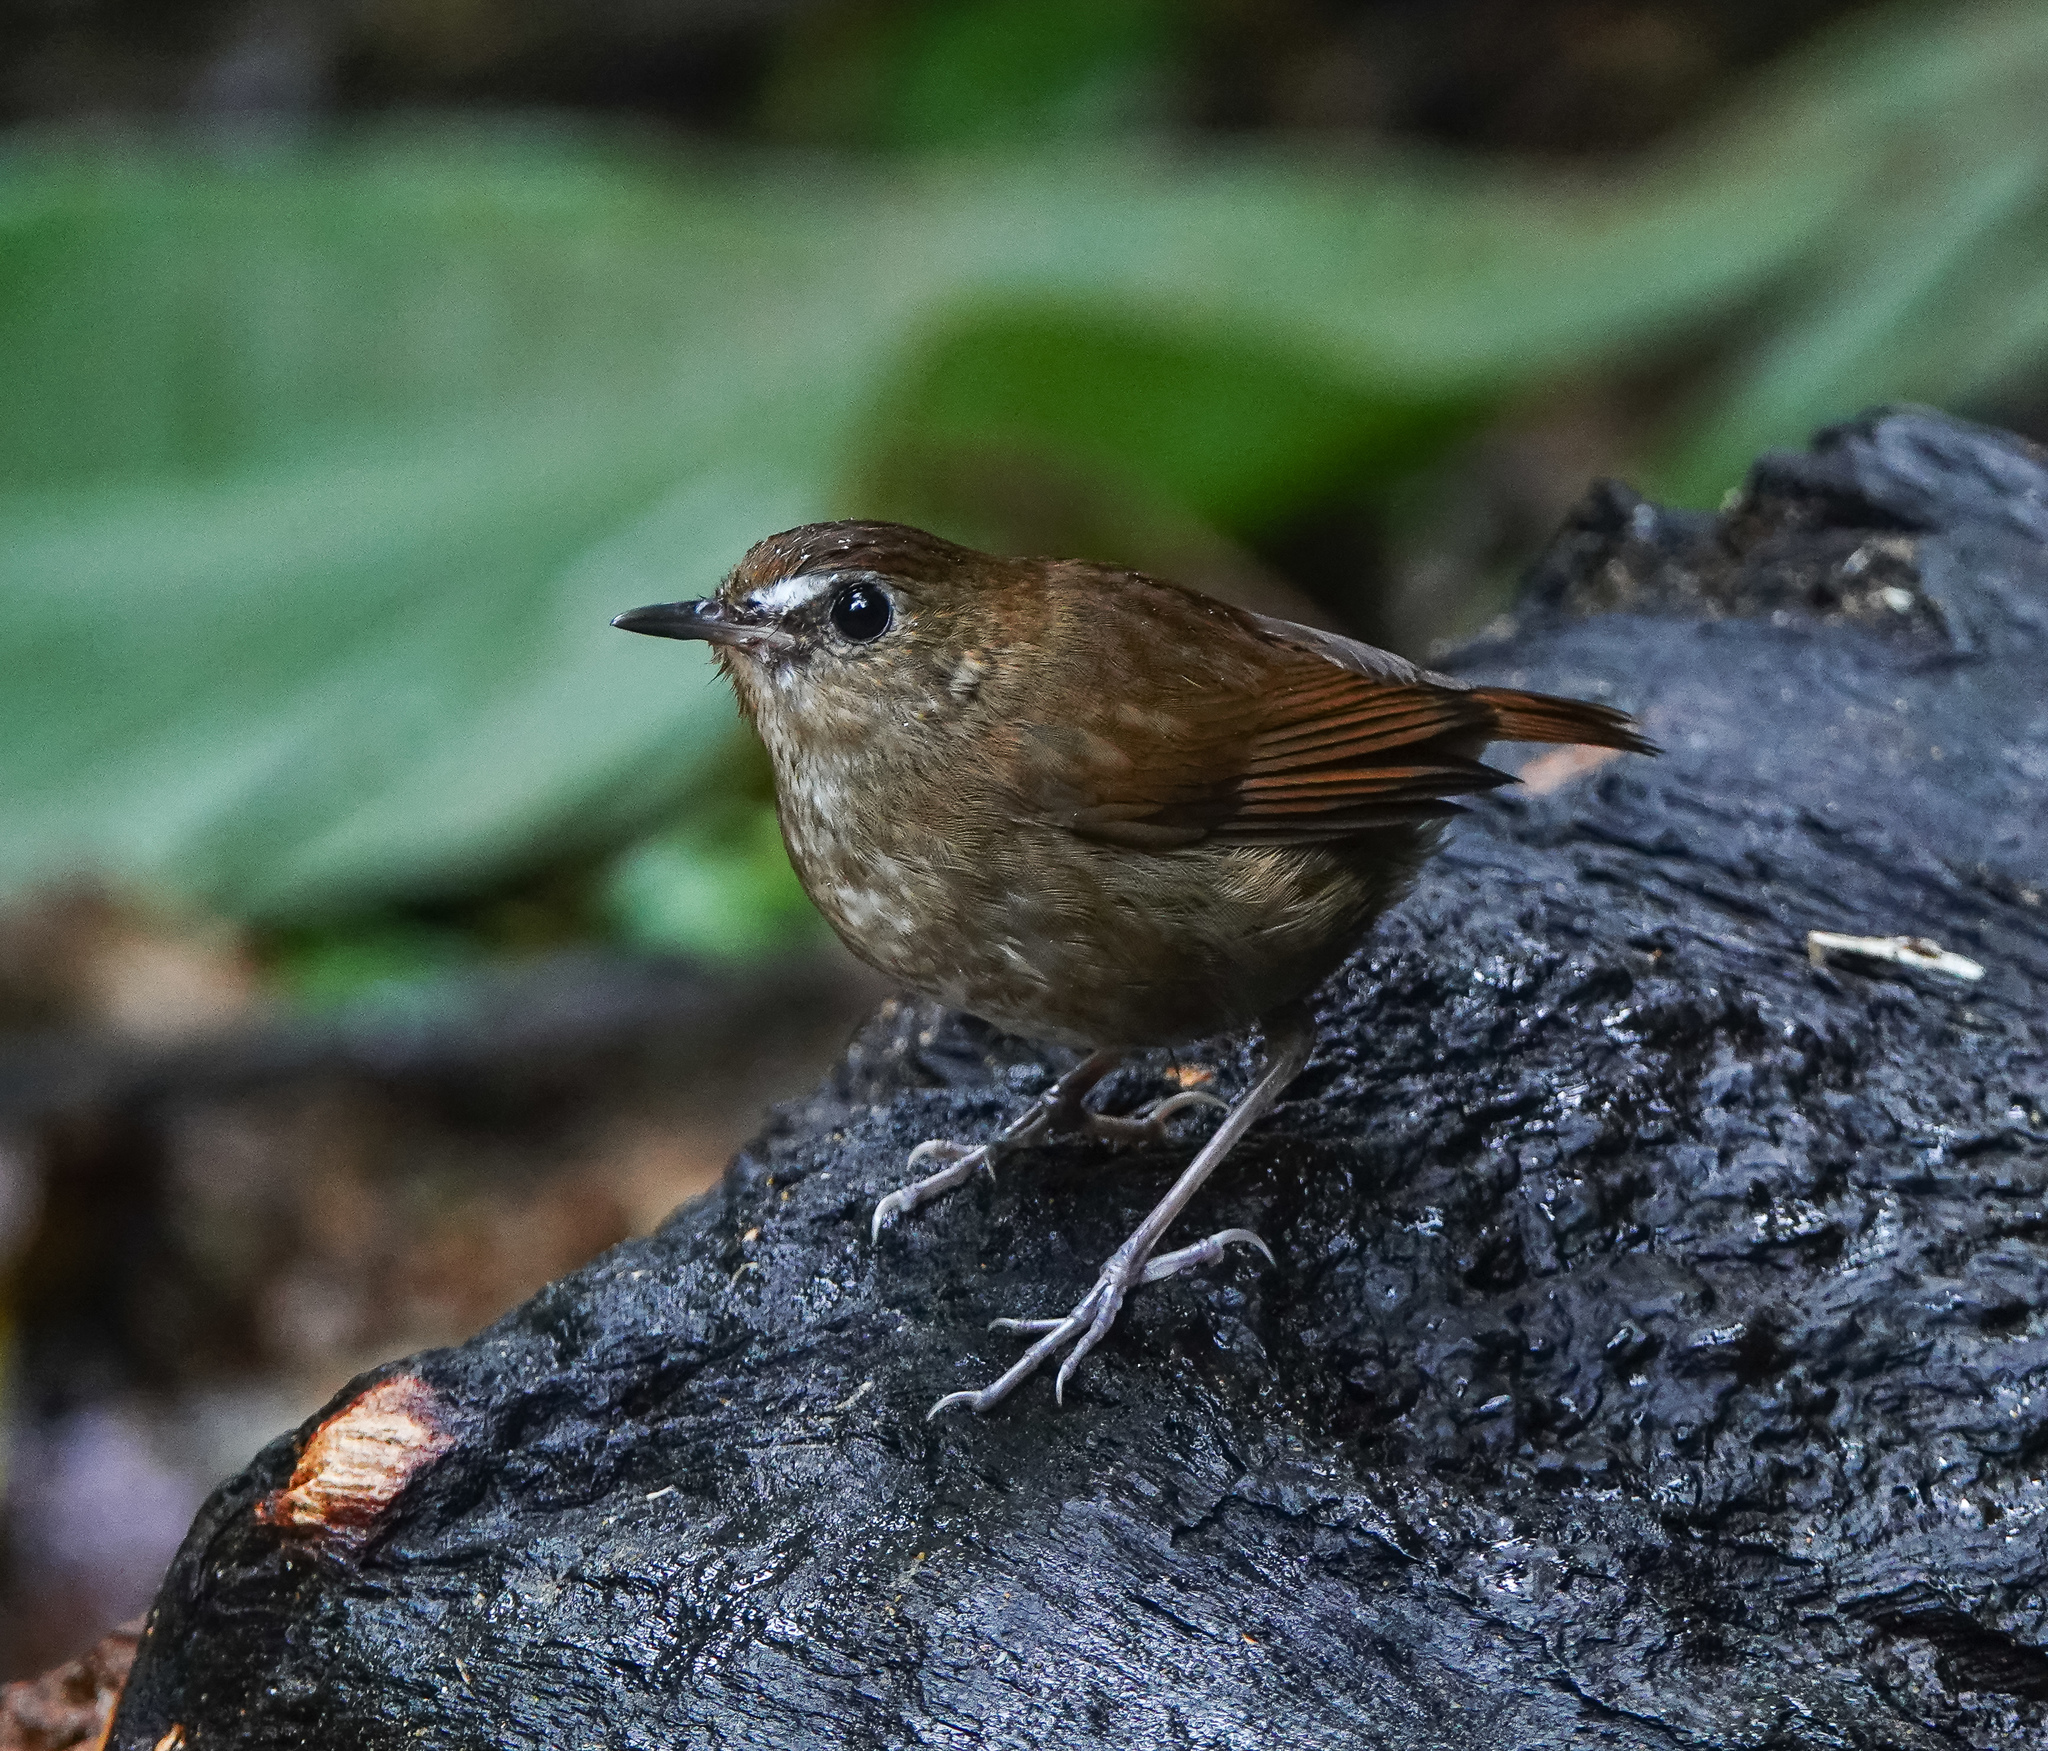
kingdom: Animalia
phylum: Chordata
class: Aves
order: Passeriformes
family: Muscicapidae
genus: Brachypteryx
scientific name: Brachypteryx leucophris
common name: Lesser shortwing
